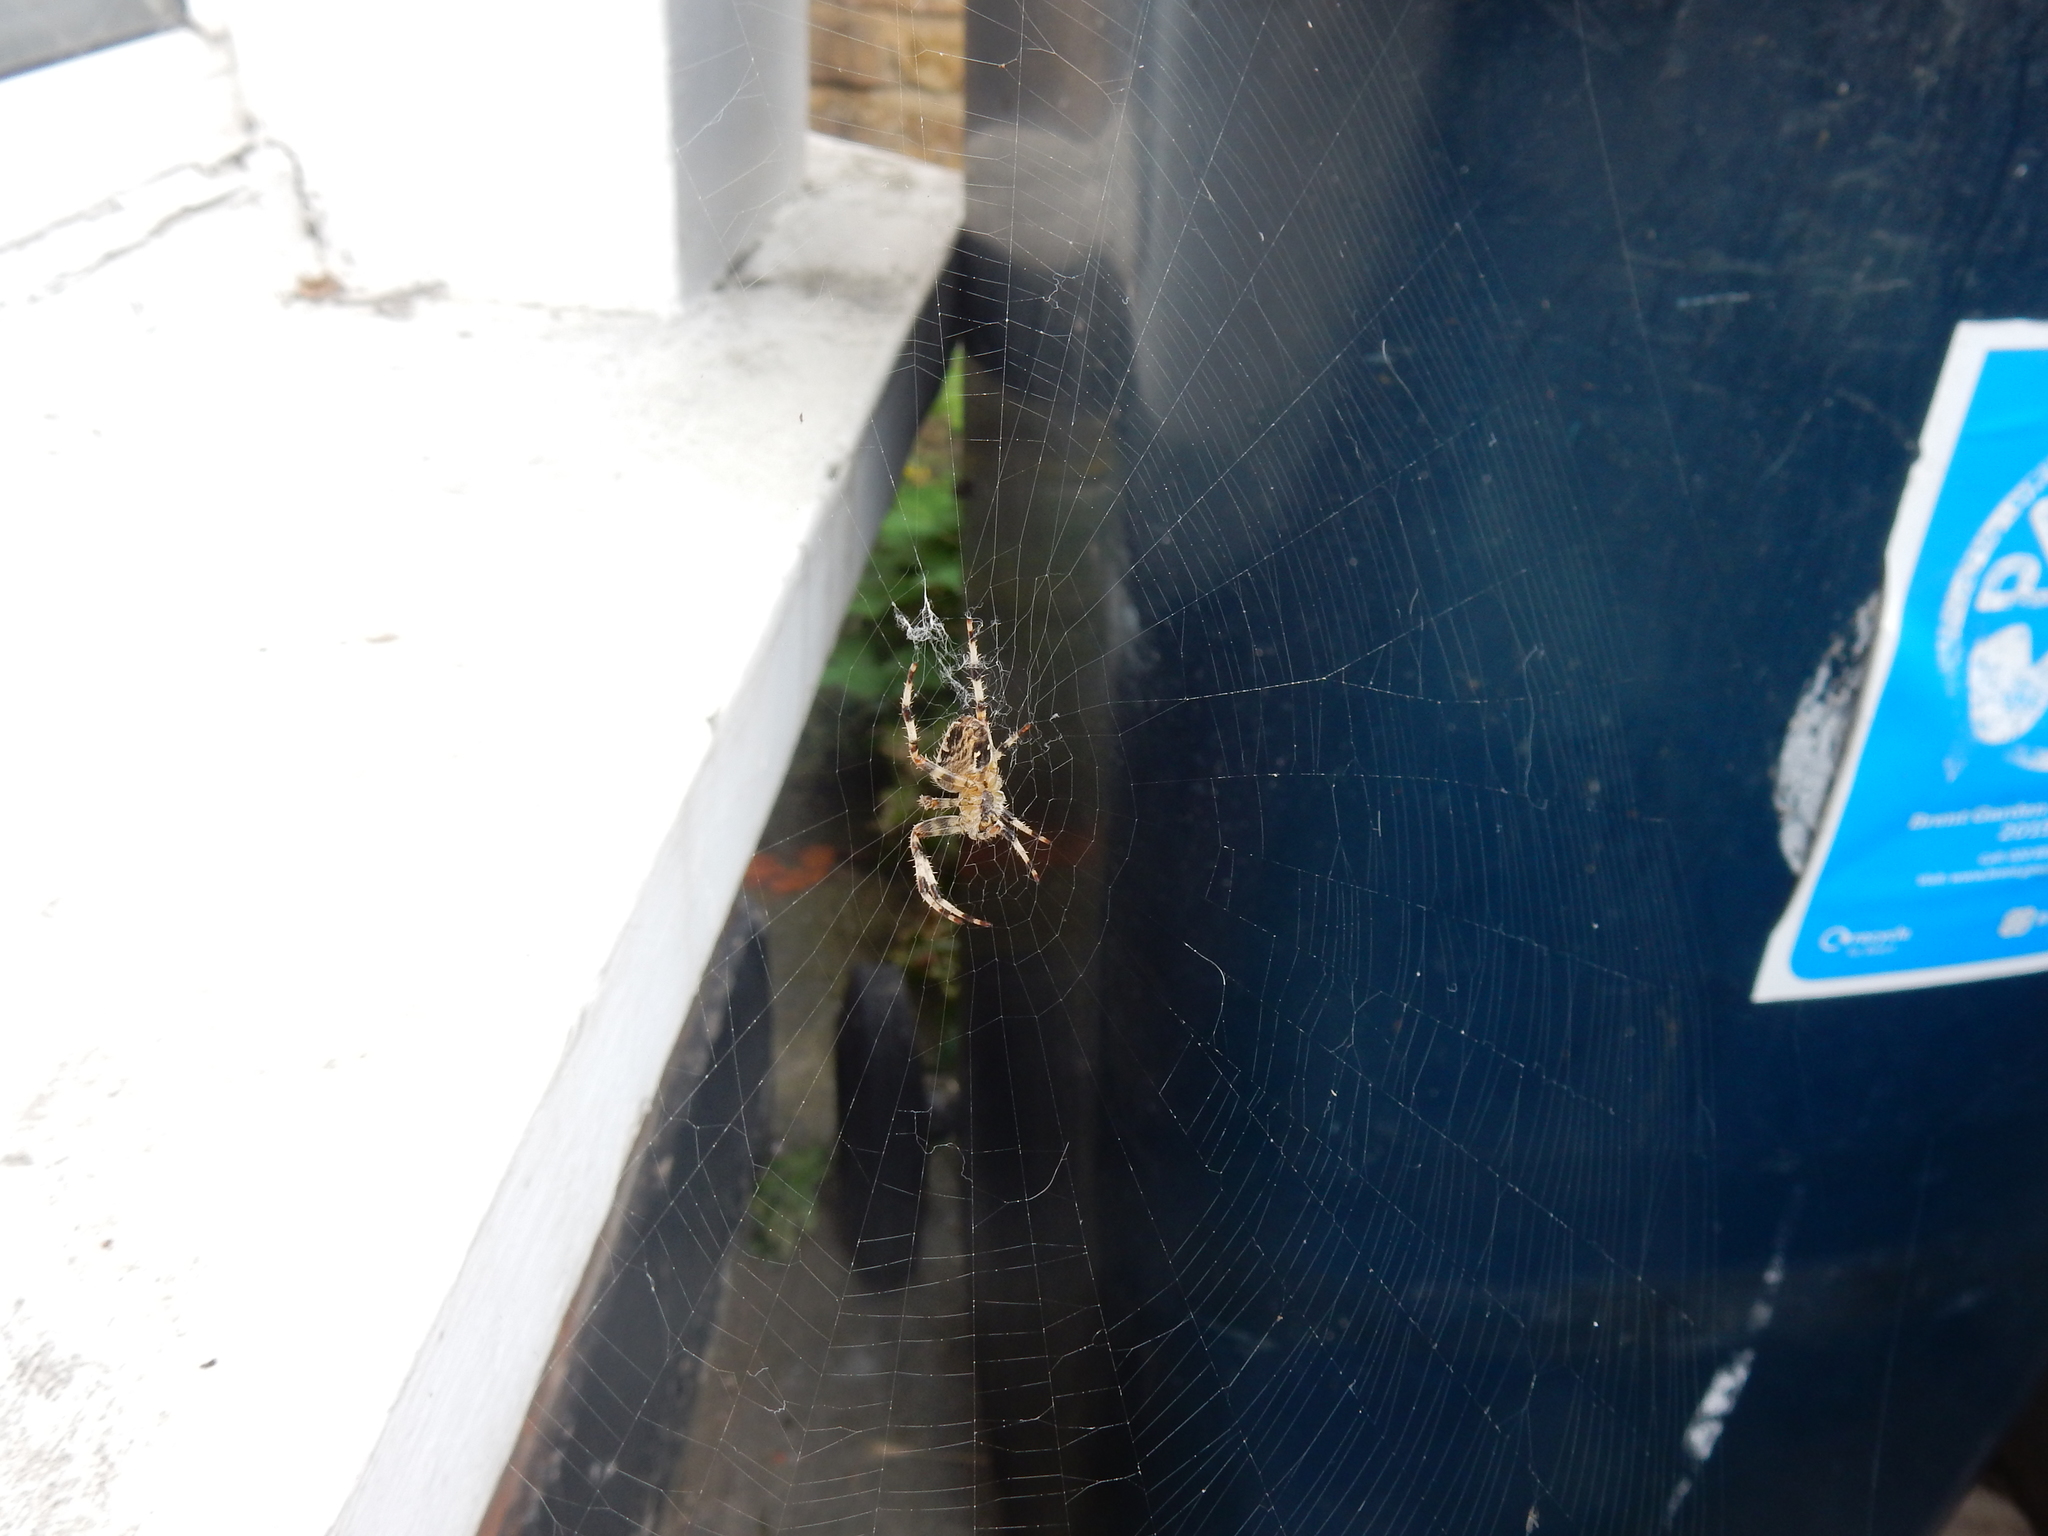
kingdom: Animalia
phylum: Arthropoda
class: Arachnida
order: Araneae
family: Araneidae
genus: Araneus
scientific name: Araneus diadematus
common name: Cross orbweaver
